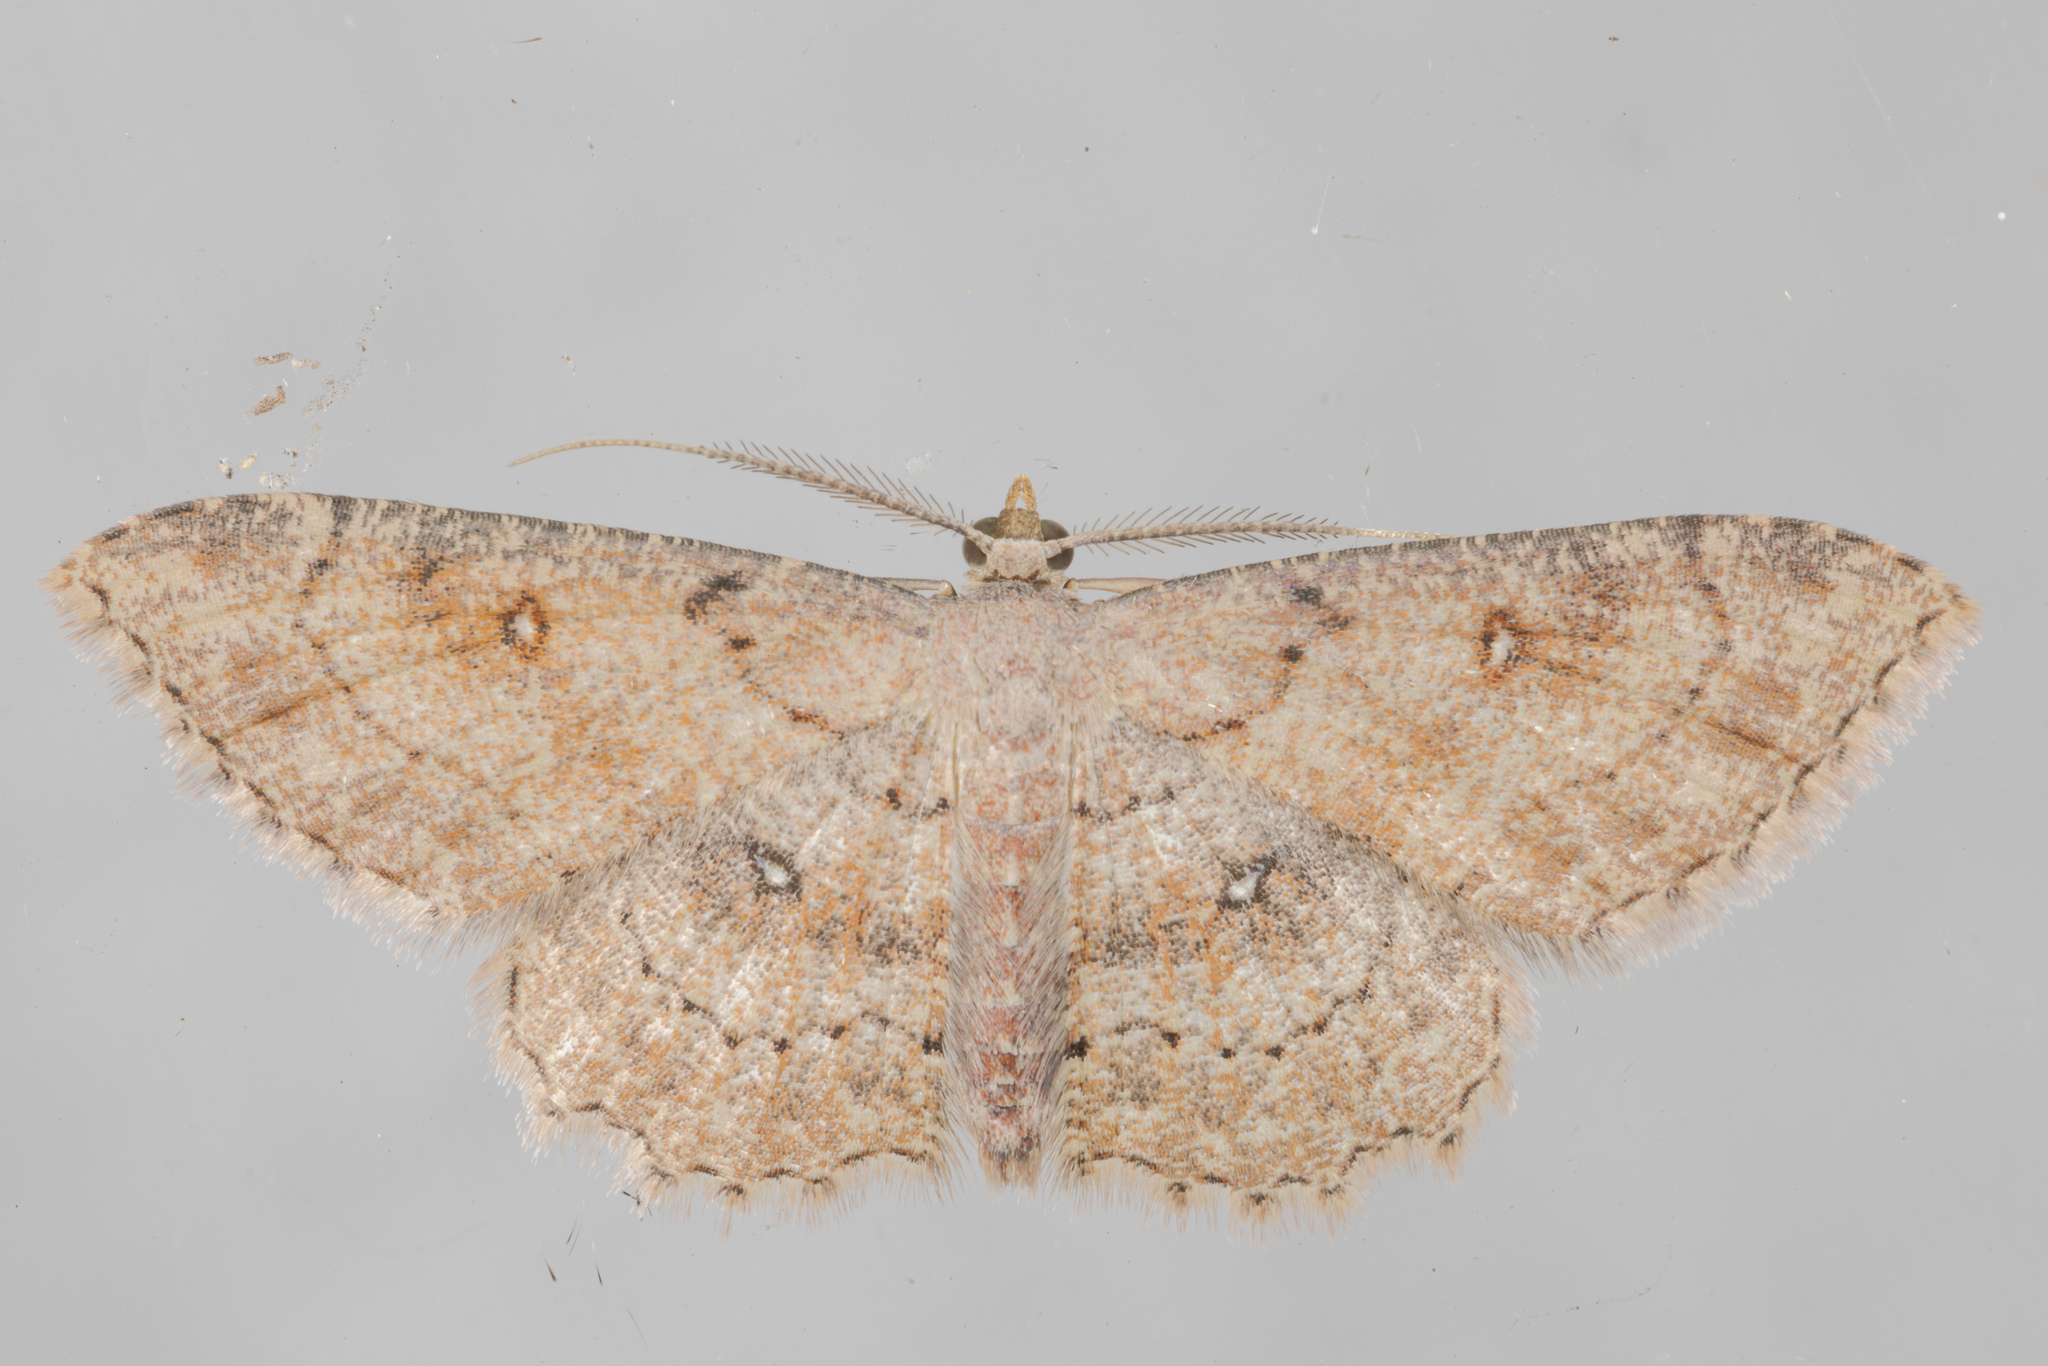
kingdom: Animalia
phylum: Arthropoda
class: Insecta
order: Lepidoptera
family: Geometridae
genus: Cyclophora
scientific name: Cyclophora nanaria
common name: Cankerworm
